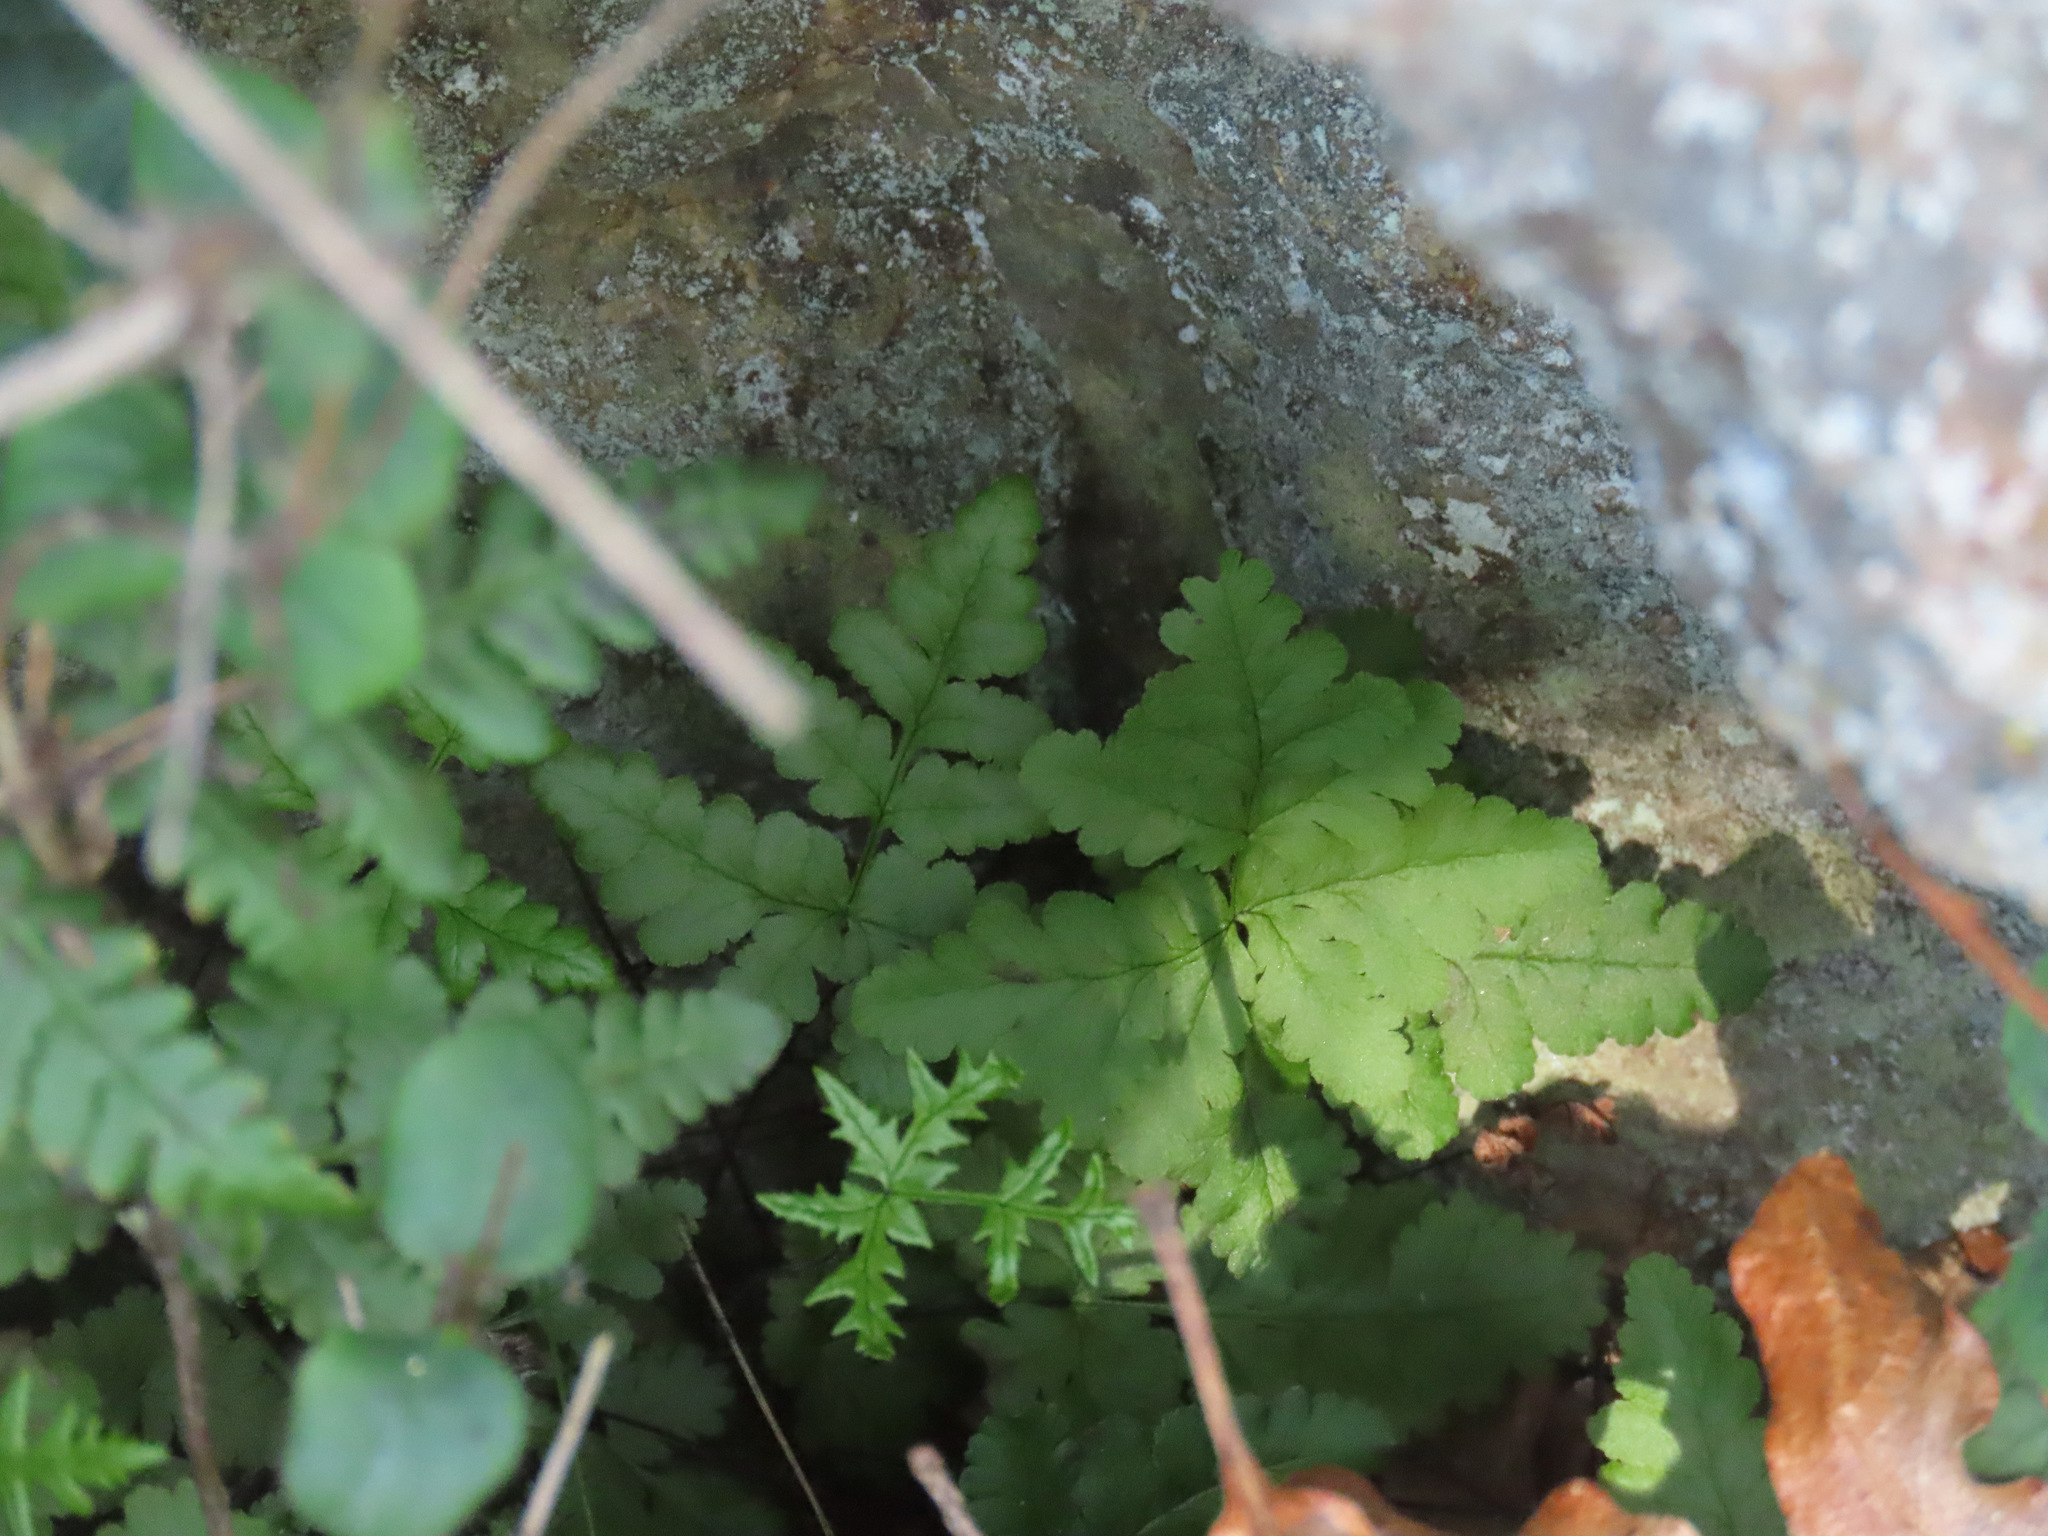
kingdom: Plantae
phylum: Tracheophyta
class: Polypodiopsida
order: Polypodiales
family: Pteridaceae
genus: Pentagramma
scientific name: Pentagramma triangularis
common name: Gold fern
